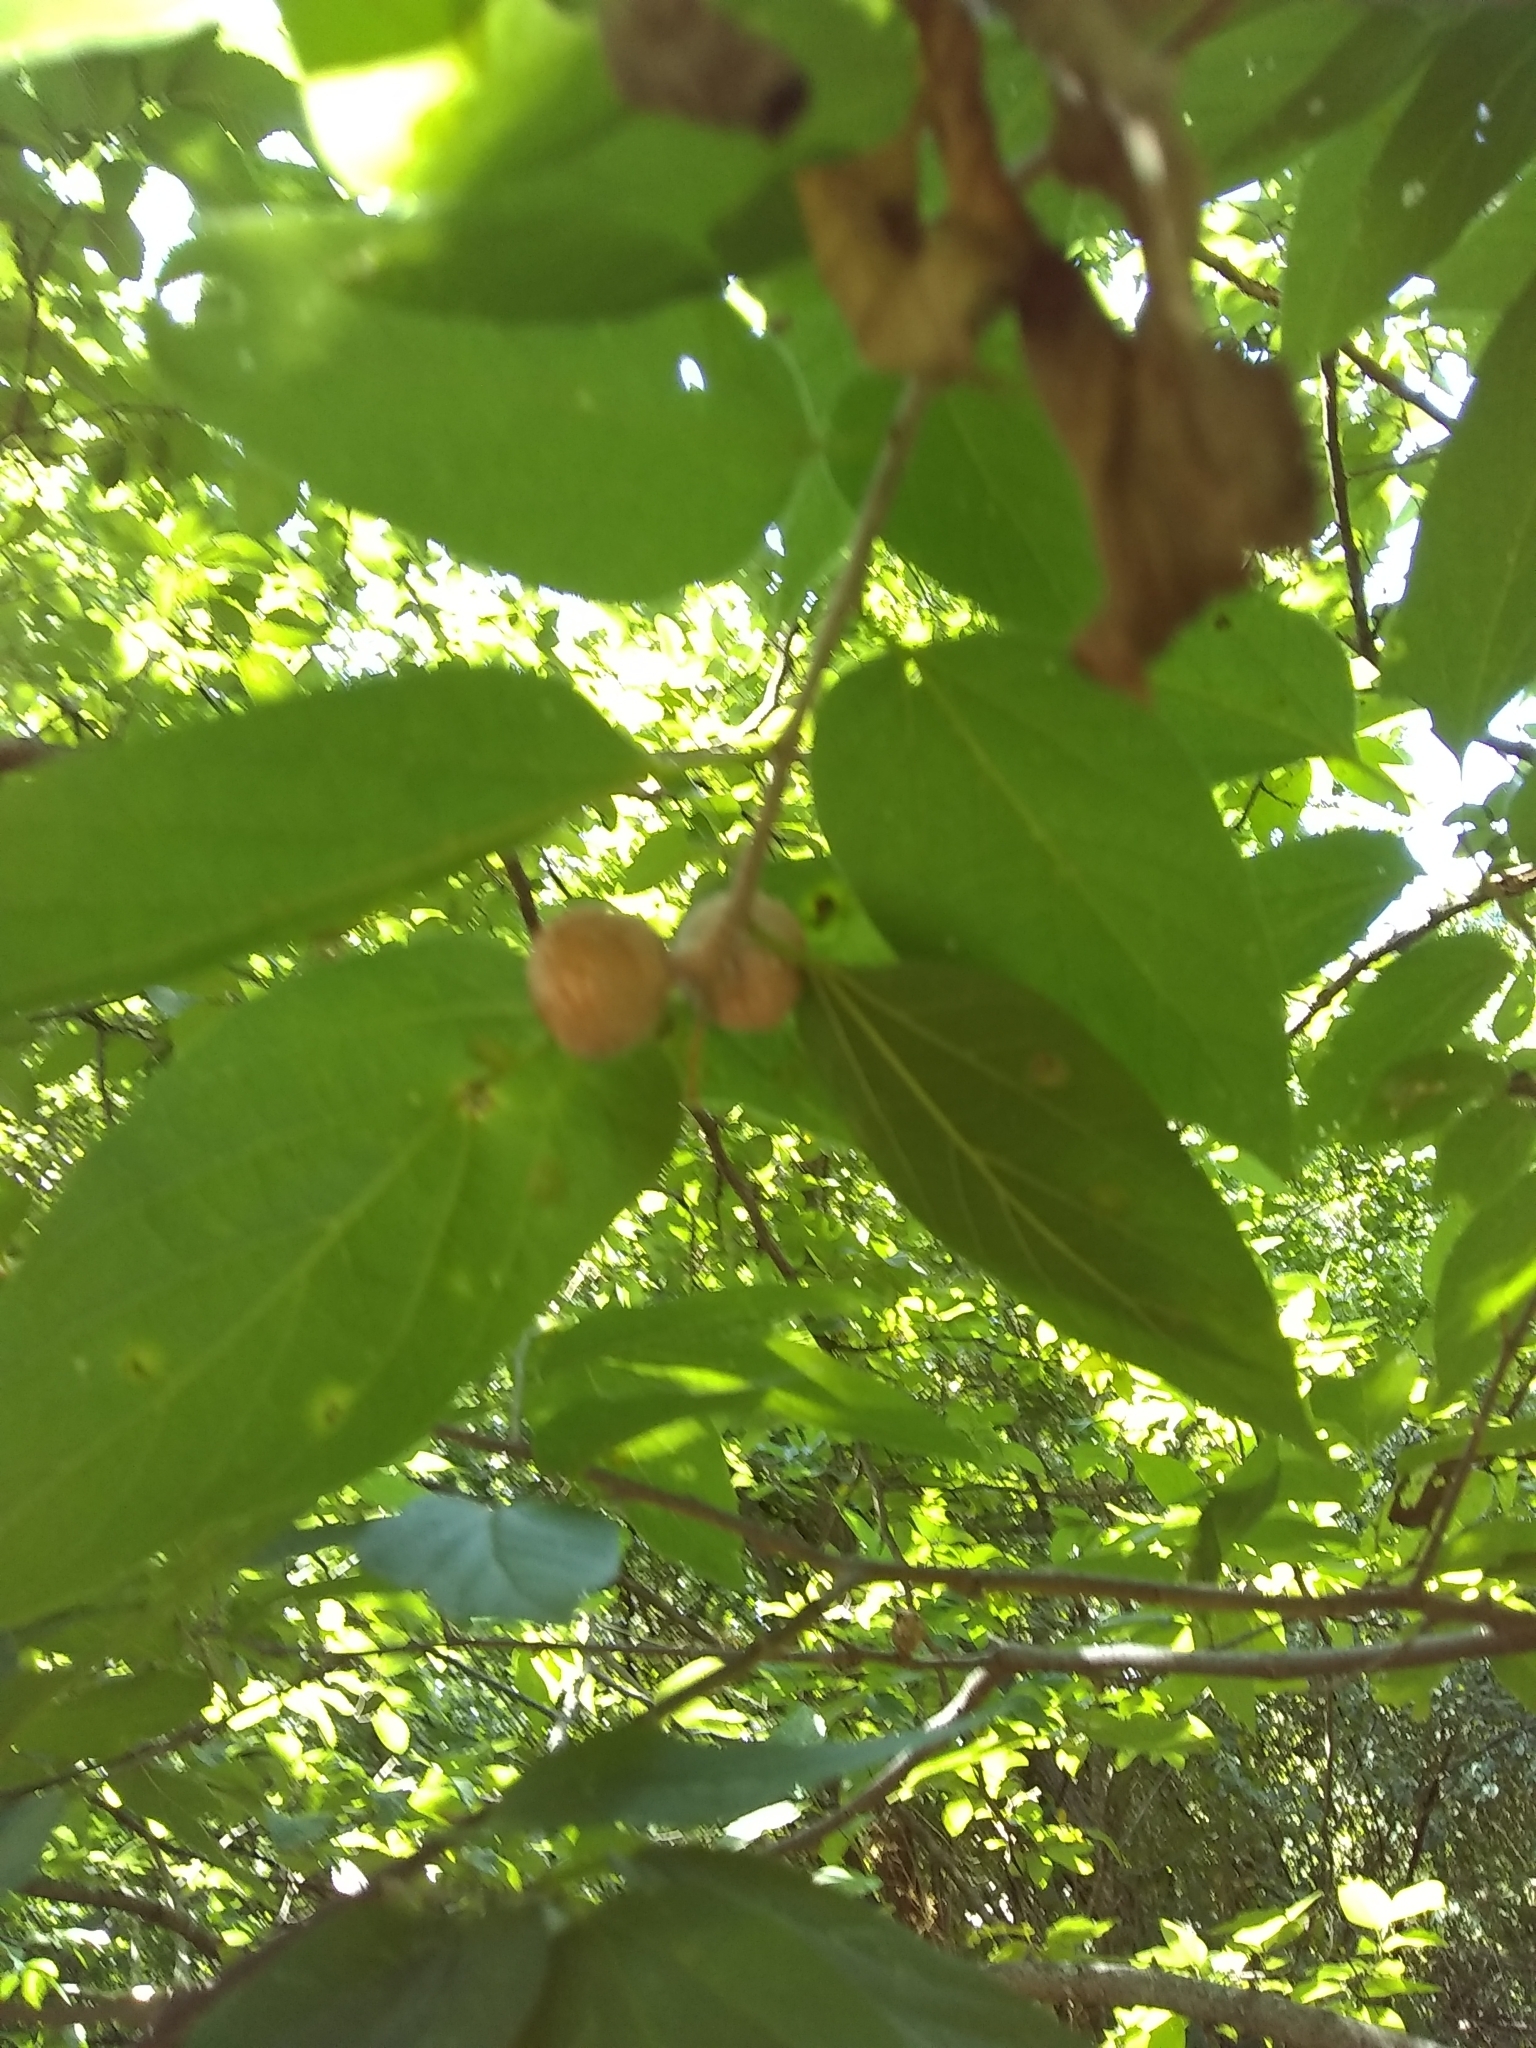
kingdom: Animalia
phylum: Arthropoda
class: Insecta
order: Hemiptera
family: Aphalaridae
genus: Pachypsylla
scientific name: Pachypsylla venusta
